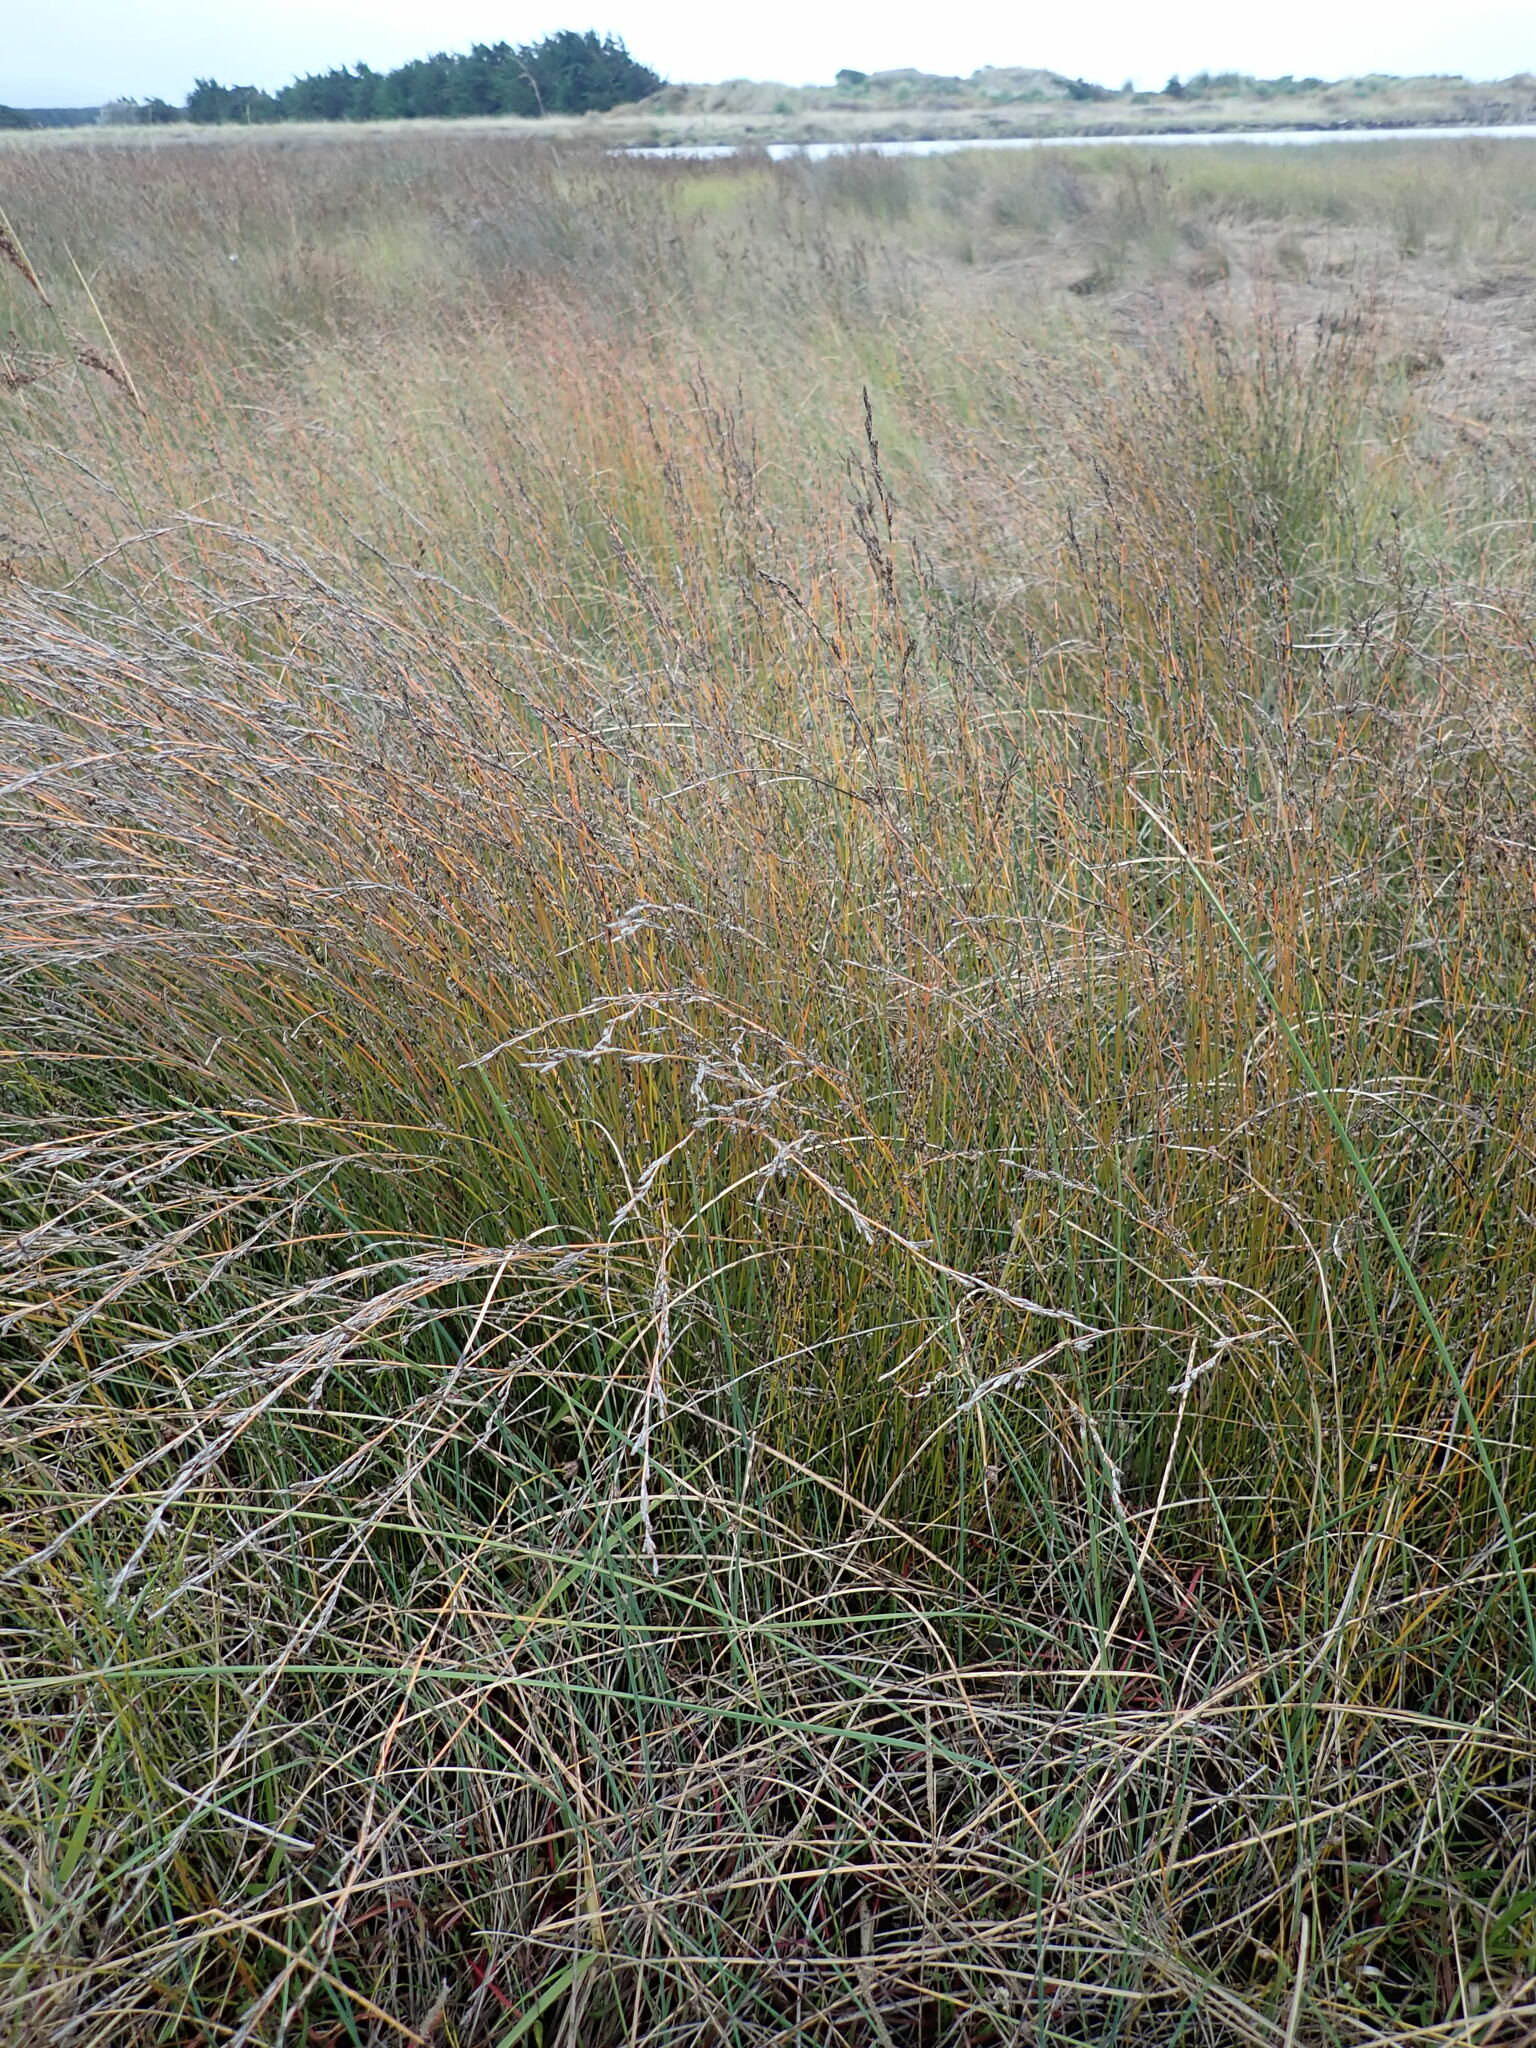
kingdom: Plantae
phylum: Tracheophyta
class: Liliopsida
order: Poales
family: Restionaceae
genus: Apodasmia
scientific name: Apodasmia similis
